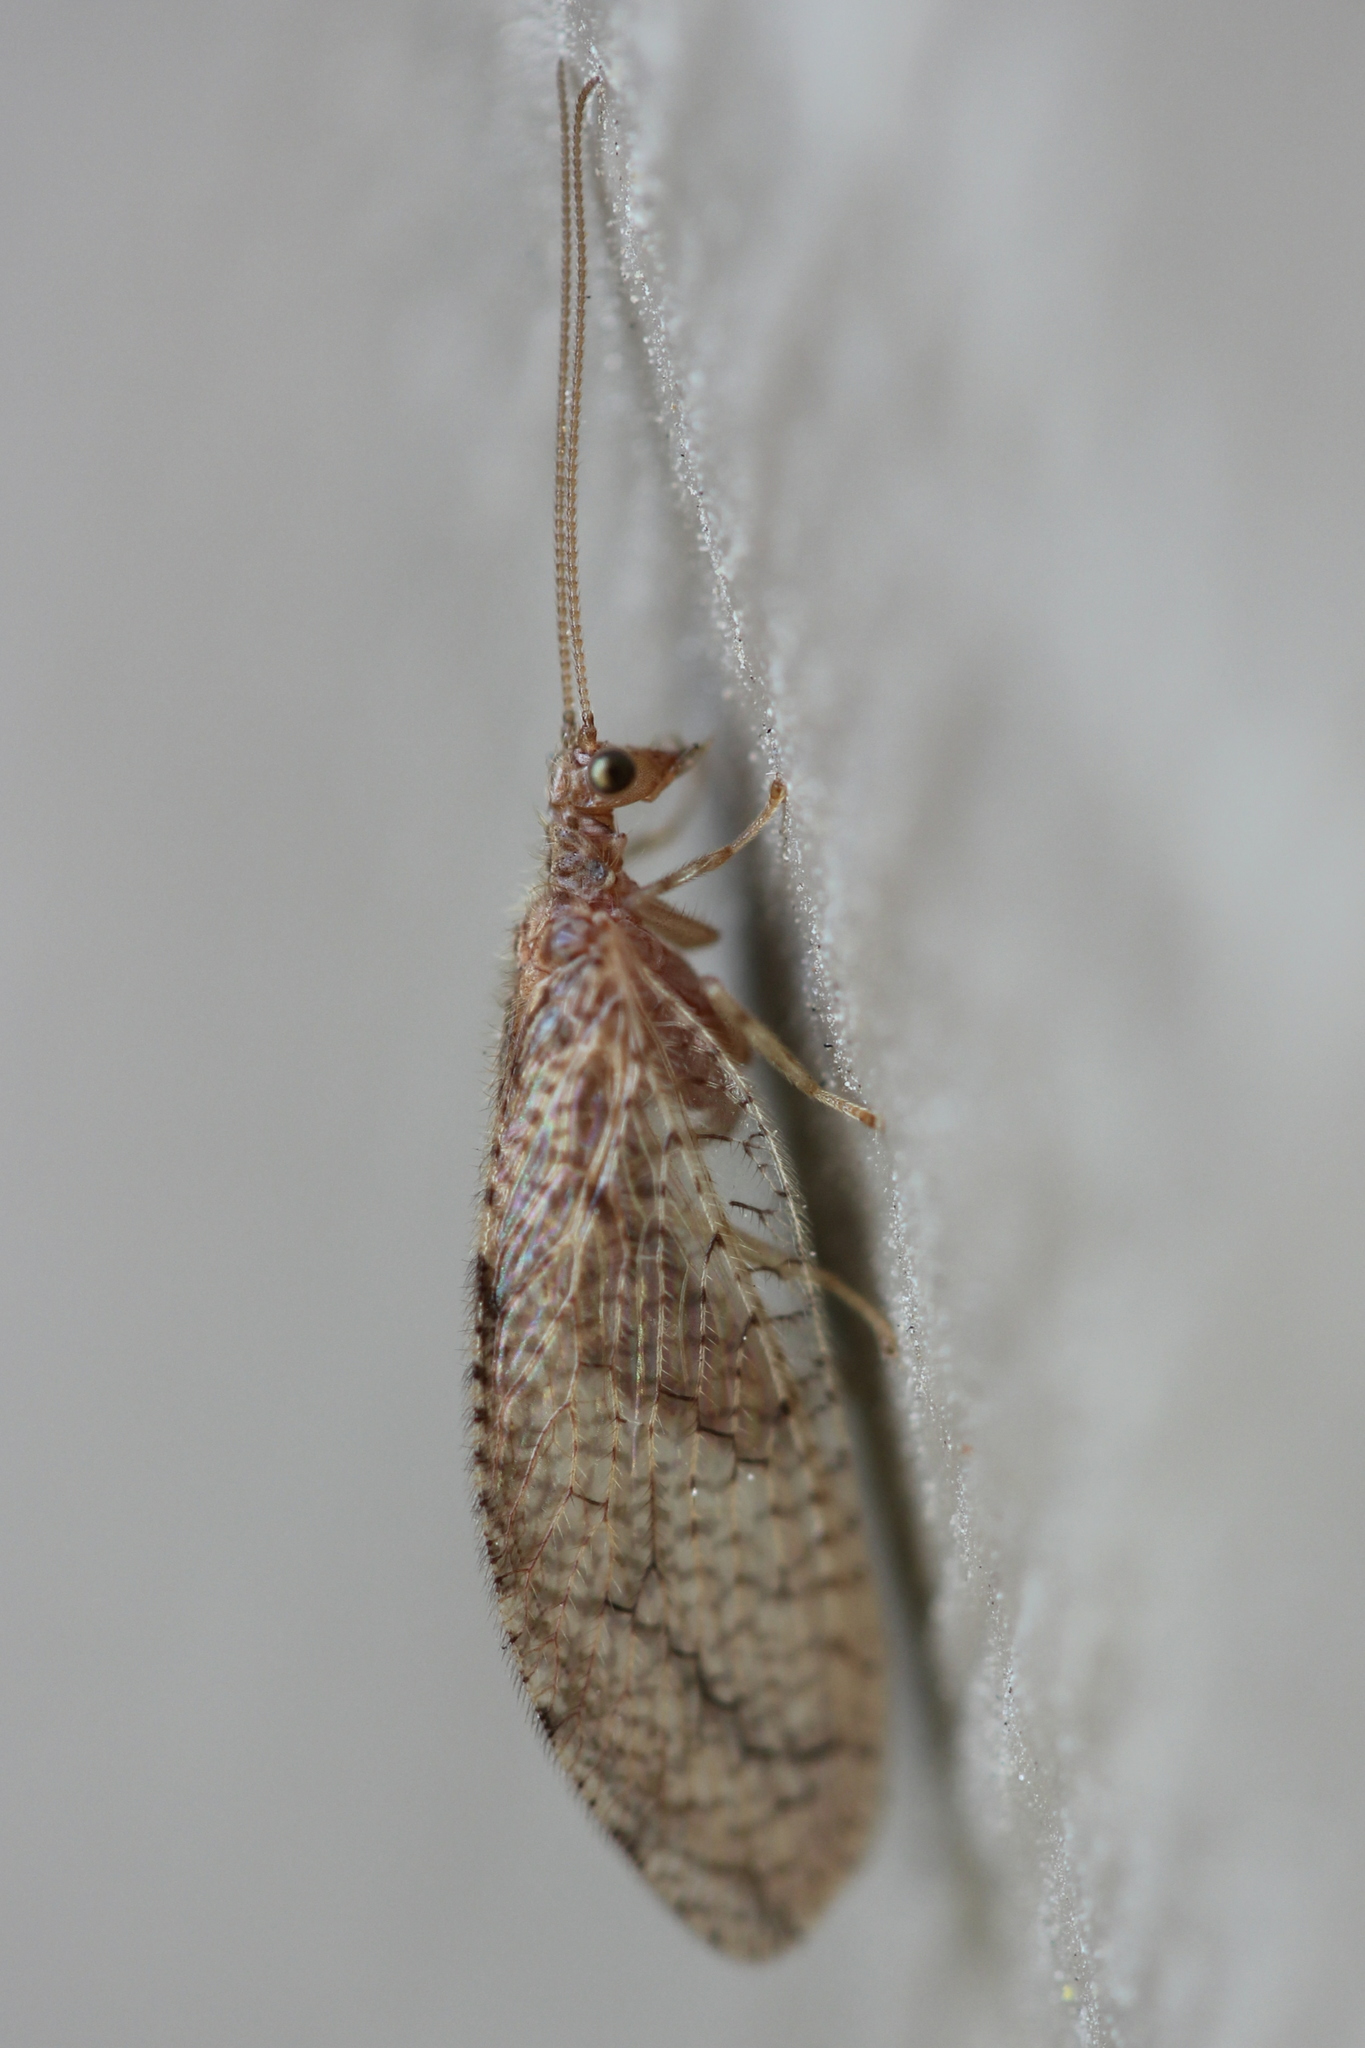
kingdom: Animalia
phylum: Arthropoda
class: Insecta
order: Neuroptera
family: Hemerobiidae
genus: Micromus
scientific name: Micromus posticus
